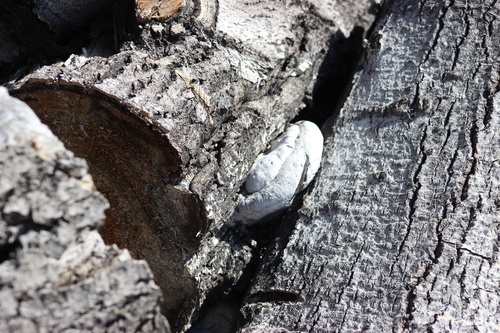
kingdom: Fungi
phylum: Basidiomycota
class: Agaricomycetes
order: Polyporales
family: Polyporaceae
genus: Fomes
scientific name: Fomes fomentarius
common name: Hoof fungus
